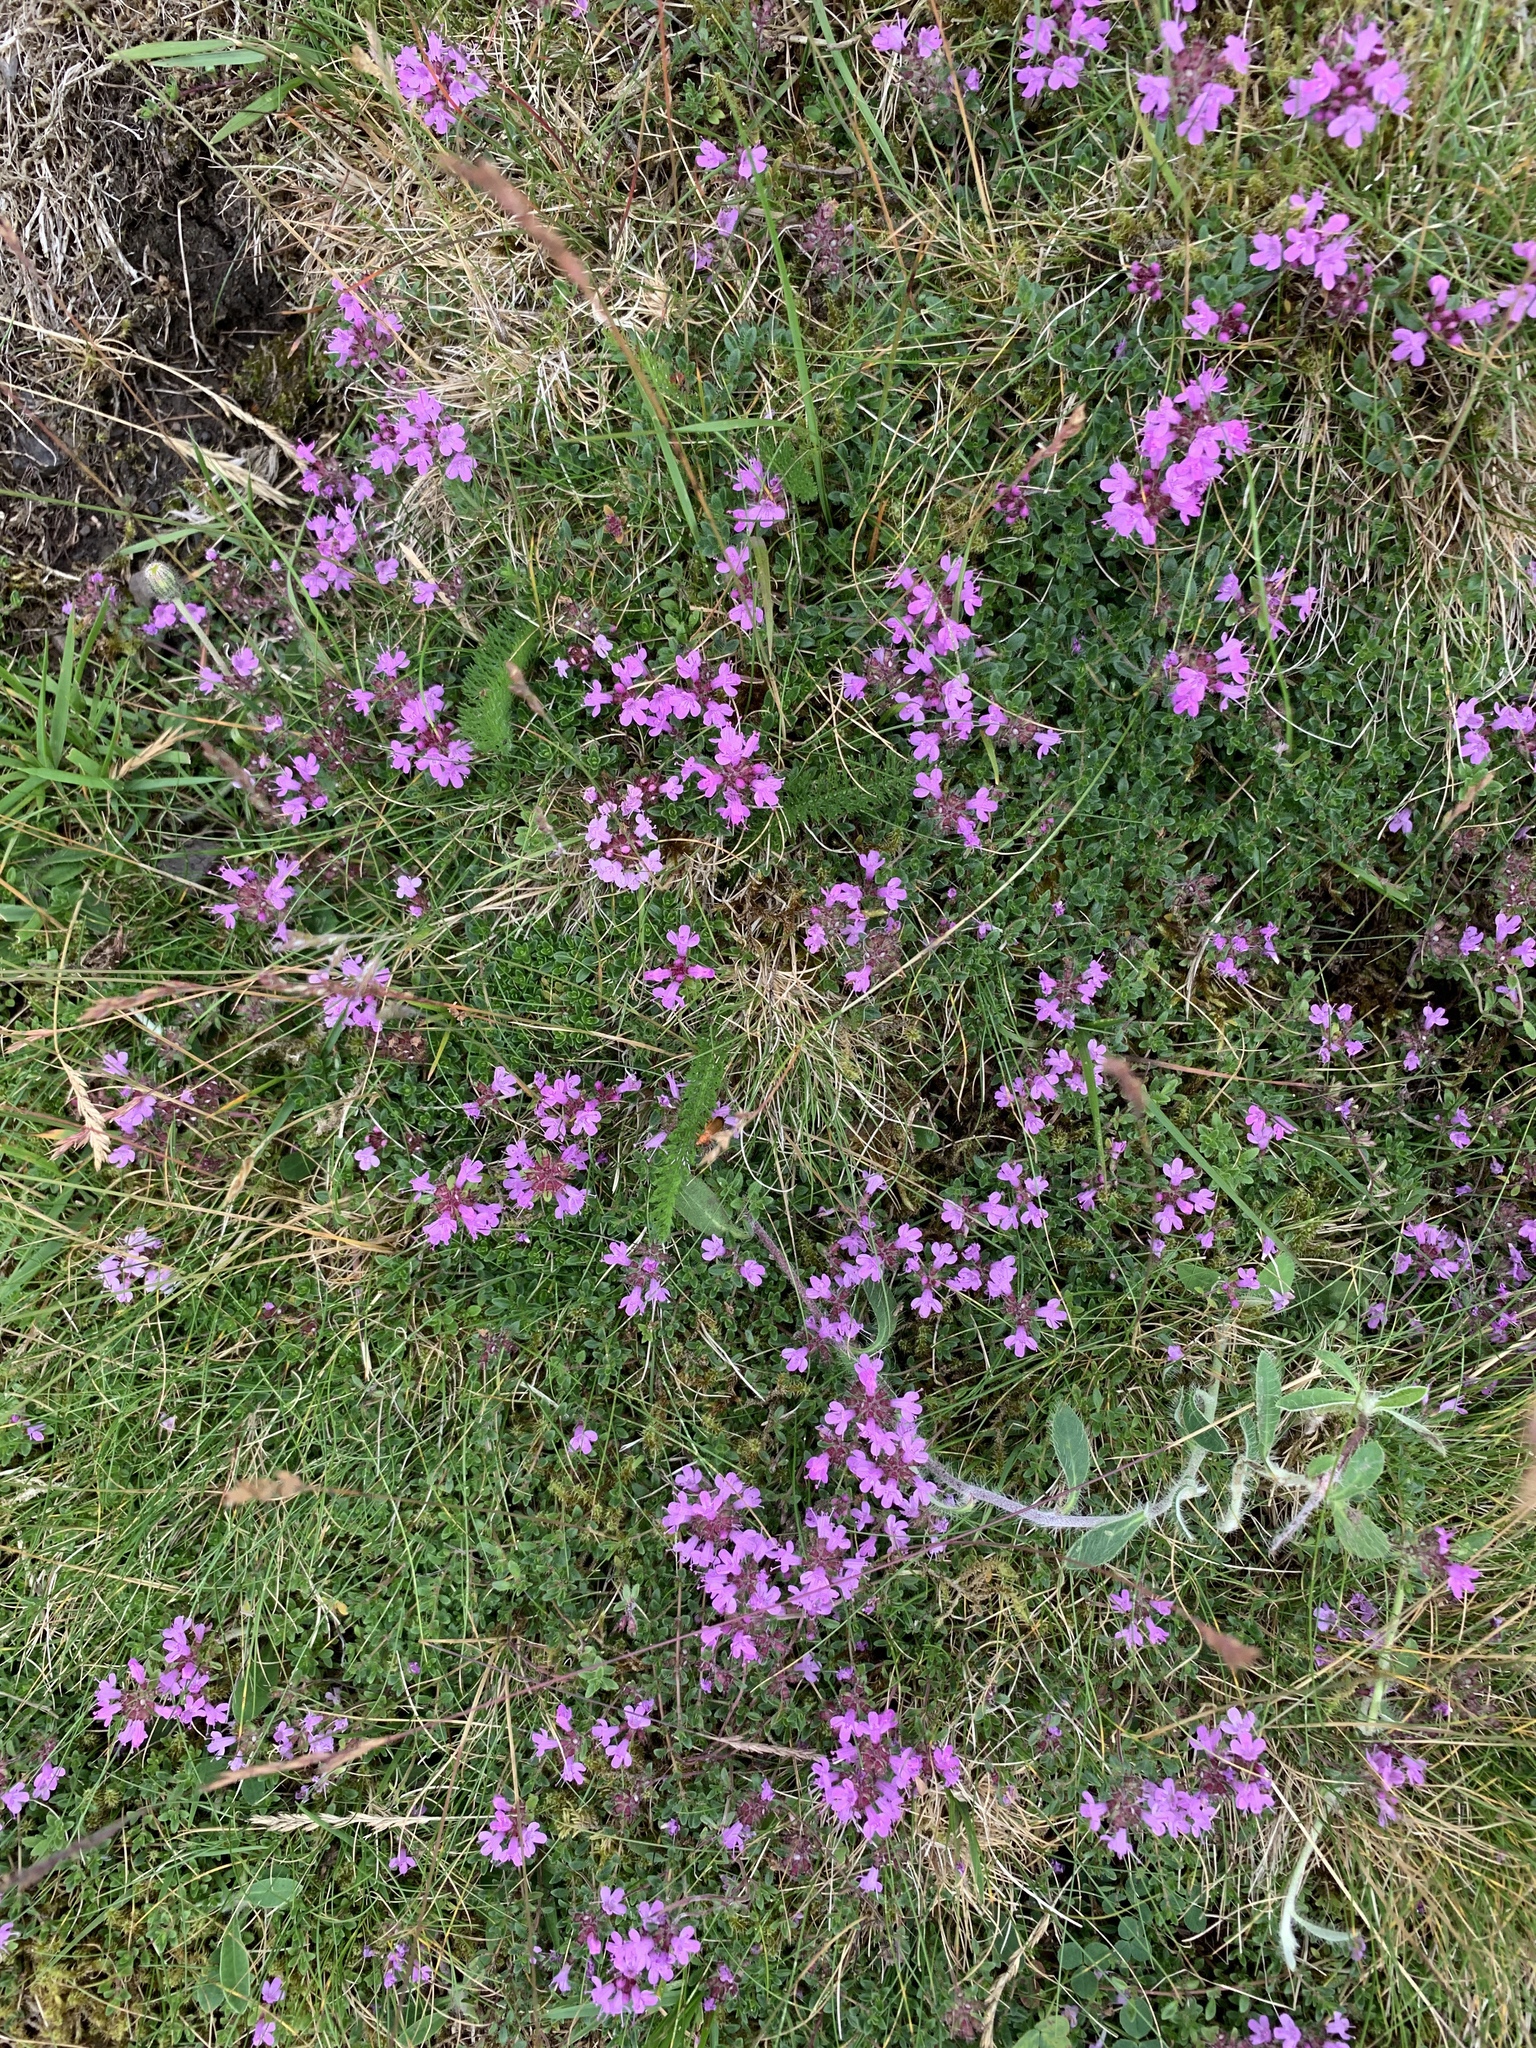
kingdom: Plantae
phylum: Tracheophyta
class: Magnoliopsida
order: Lamiales
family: Lamiaceae
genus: Thymus
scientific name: Thymus praecox
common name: Wild thyme
